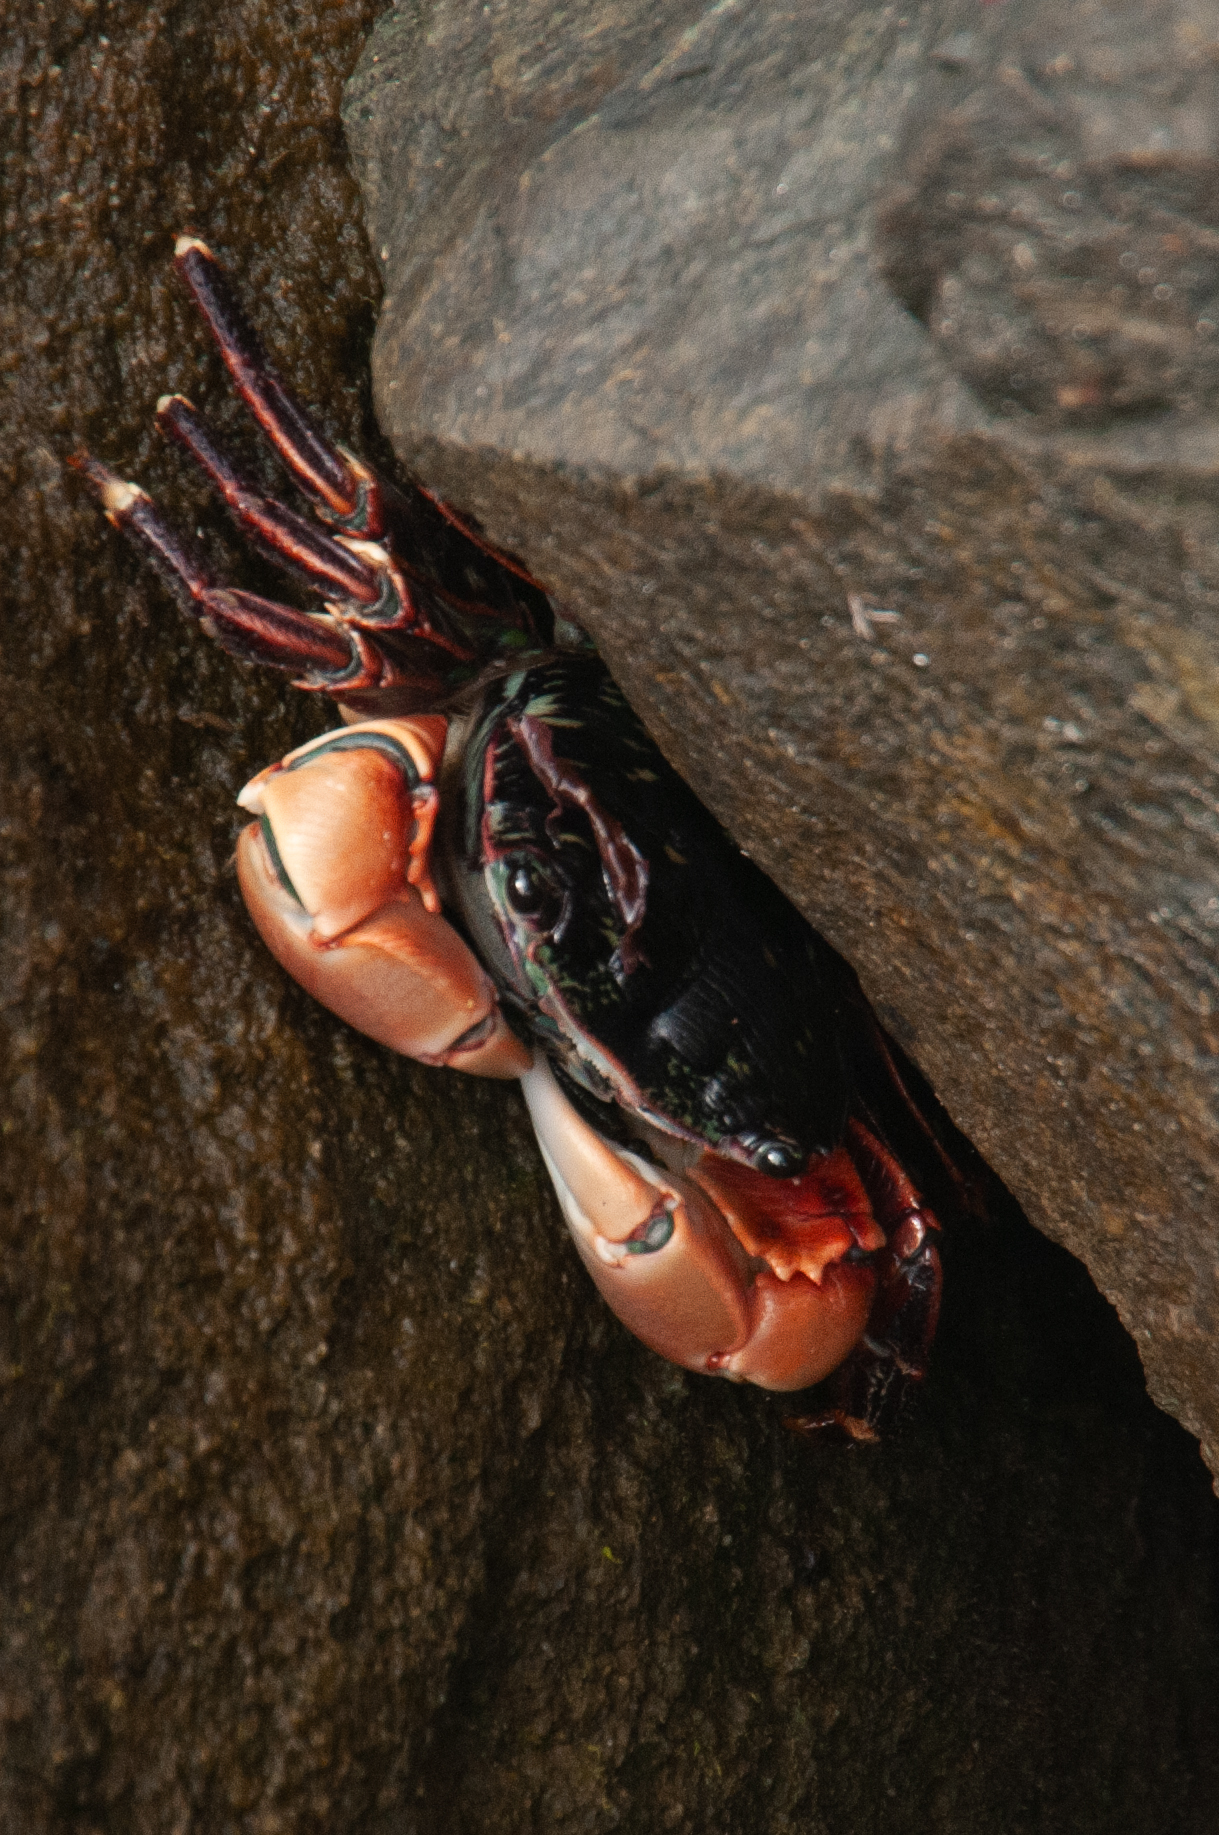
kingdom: Animalia
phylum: Arthropoda
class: Malacostraca
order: Decapoda
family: Grapsidae
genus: Pachygrapsus
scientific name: Pachygrapsus crassipes
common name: Striped shore crab
